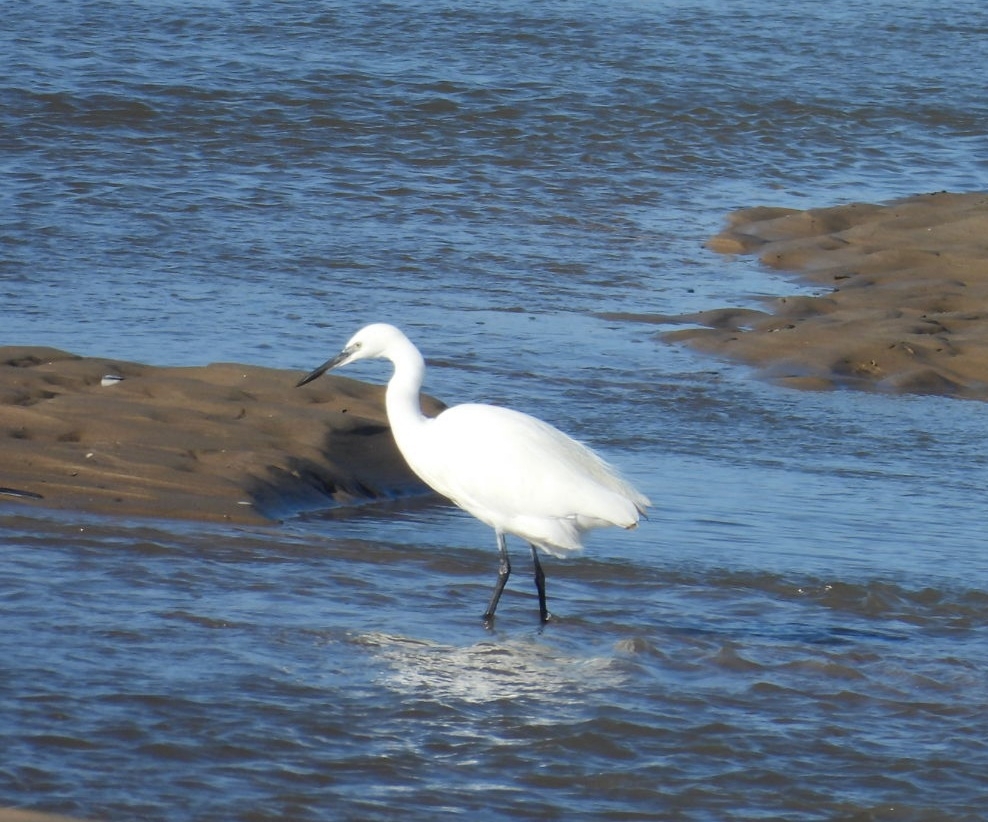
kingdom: Animalia
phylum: Chordata
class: Aves
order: Pelecaniformes
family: Ardeidae
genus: Egretta
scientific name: Egretta garzetta
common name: Little egret
